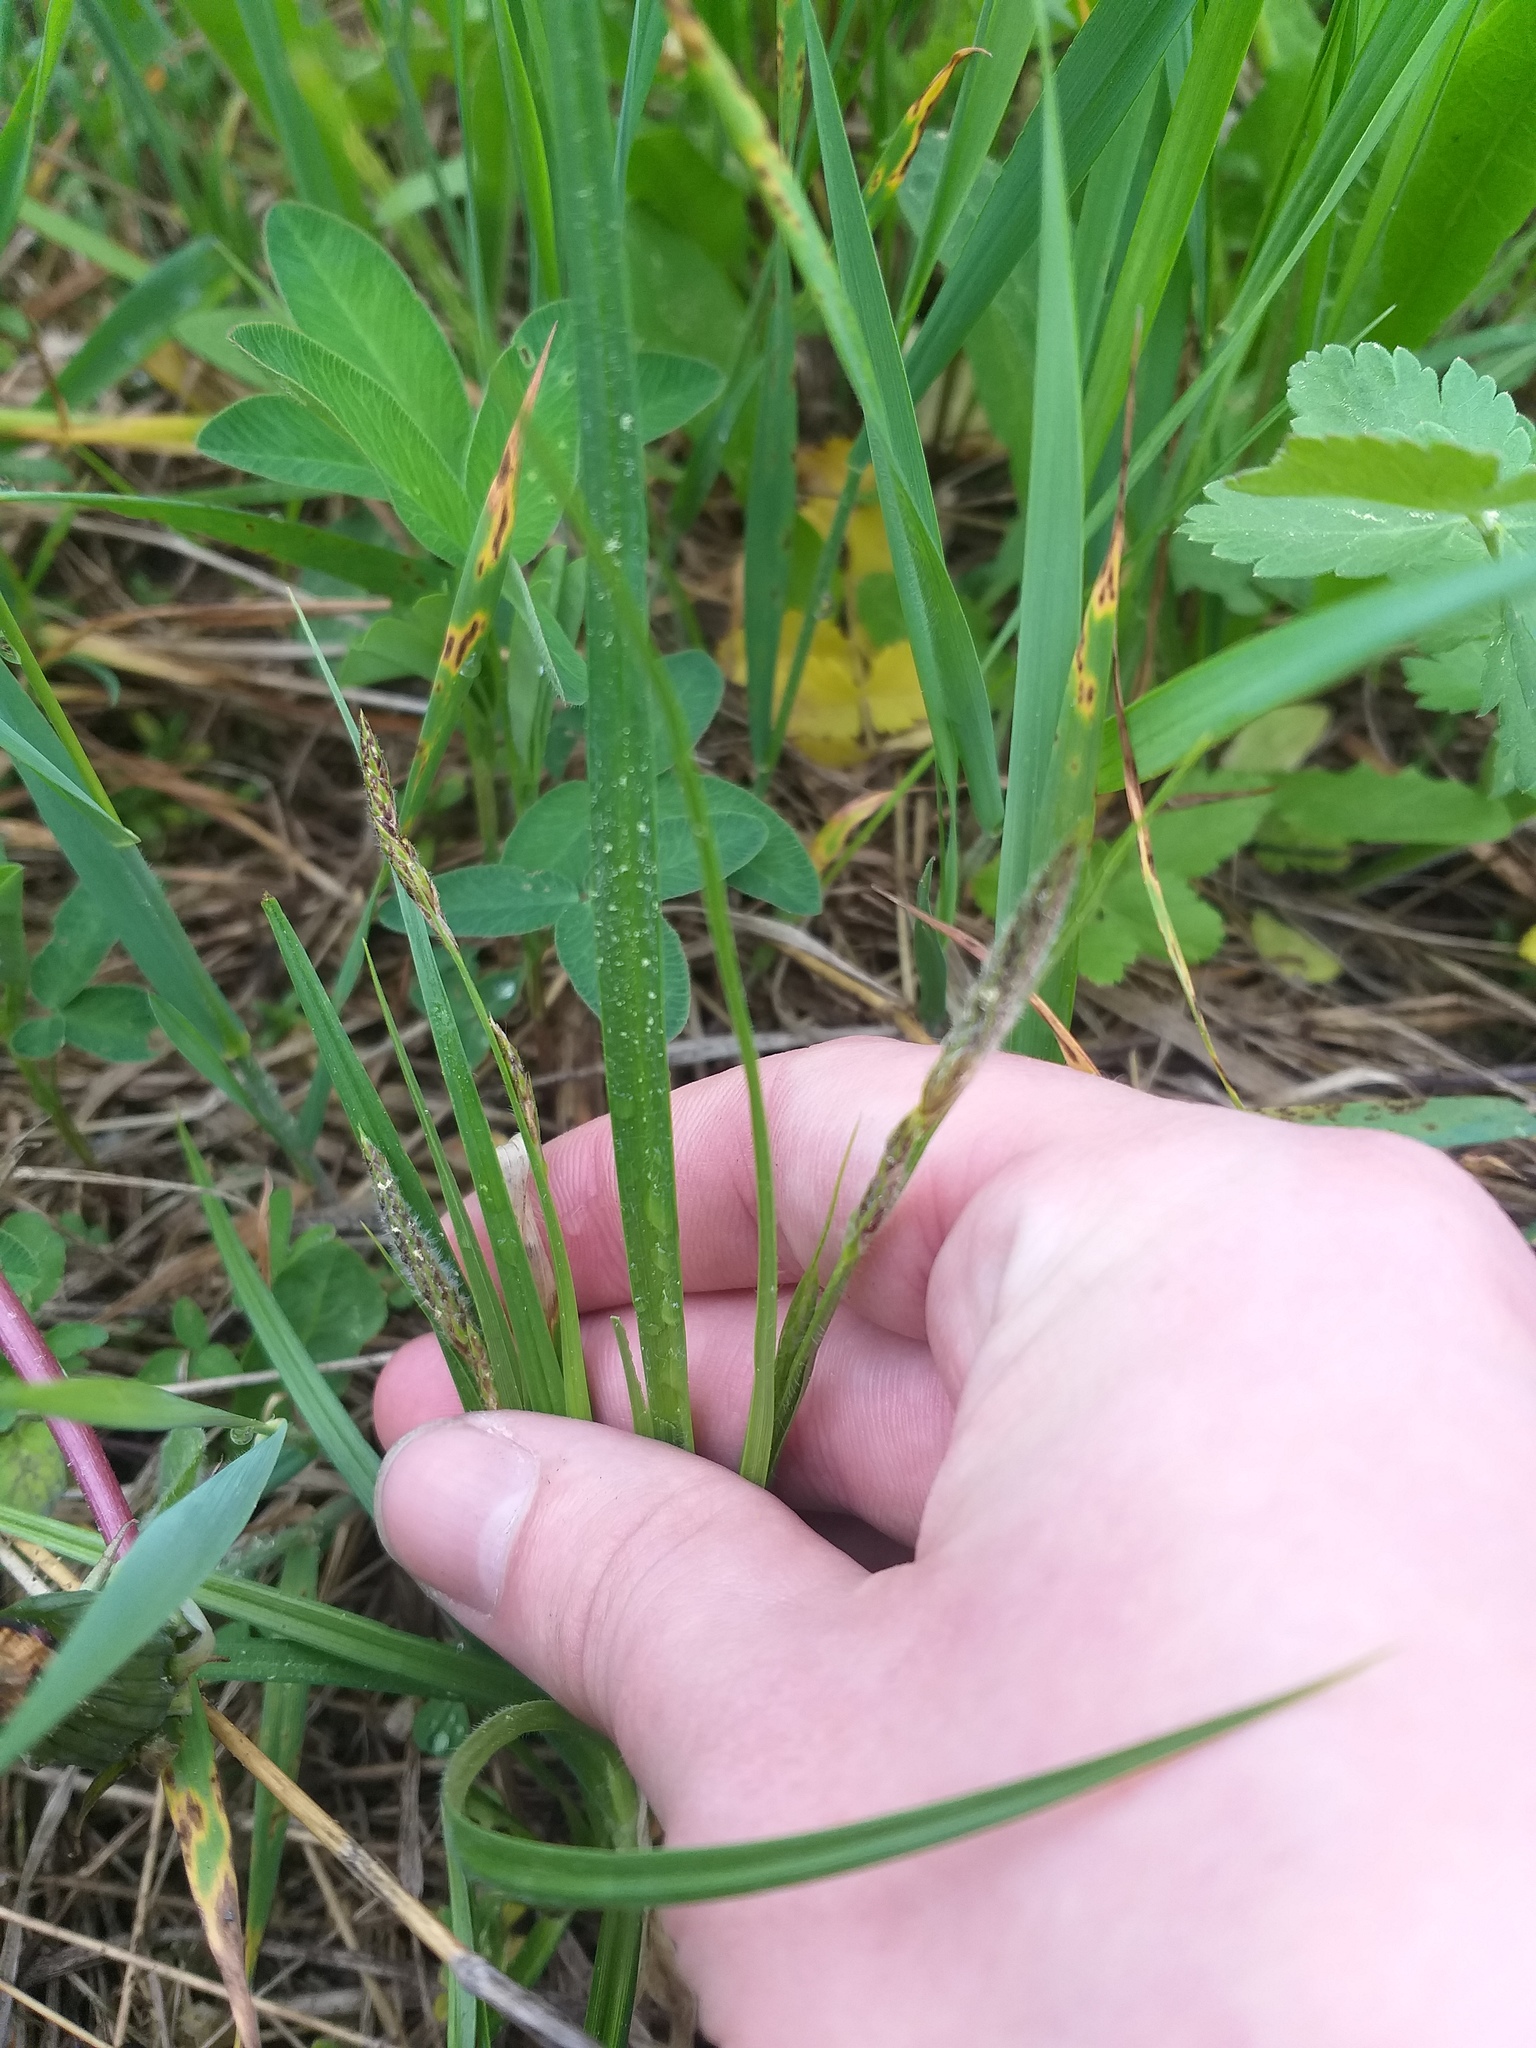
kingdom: Plantae
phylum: Tracheophyta
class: Liliopsida
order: Poales
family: Cyperaceae
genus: Carex
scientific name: Carex hirta
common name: Hairy sedge
